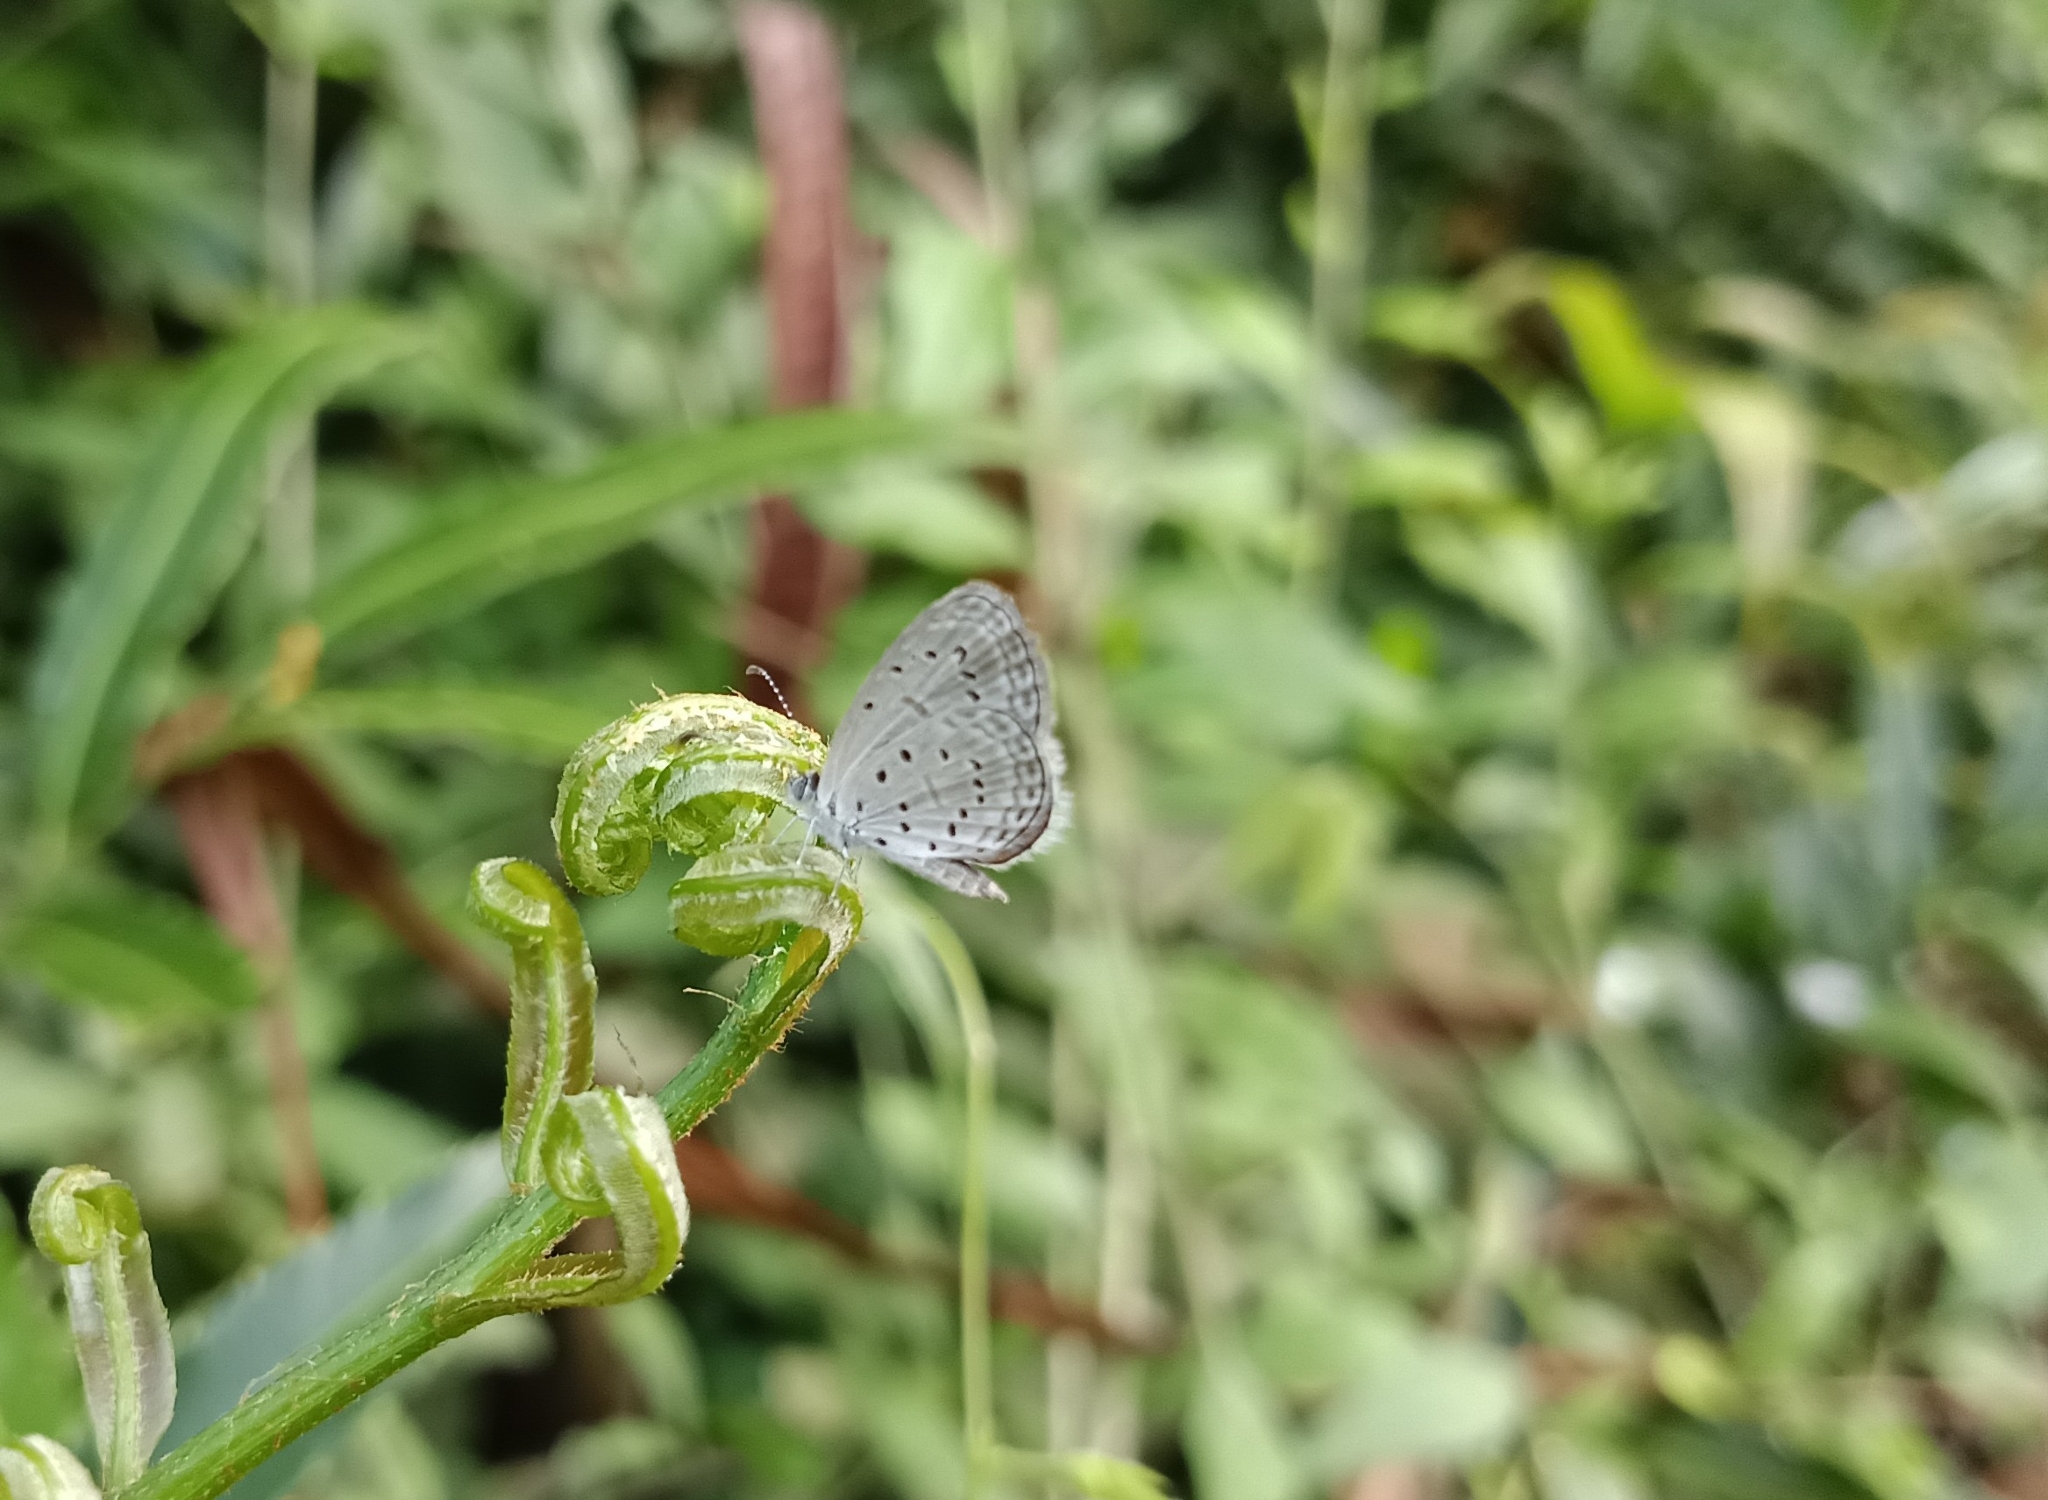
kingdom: Animalia
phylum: Arthropoda
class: Insecta
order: Lepidoptera
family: Lycaenidae
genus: Zizula
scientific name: Zizula hylax
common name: Gaika blue
